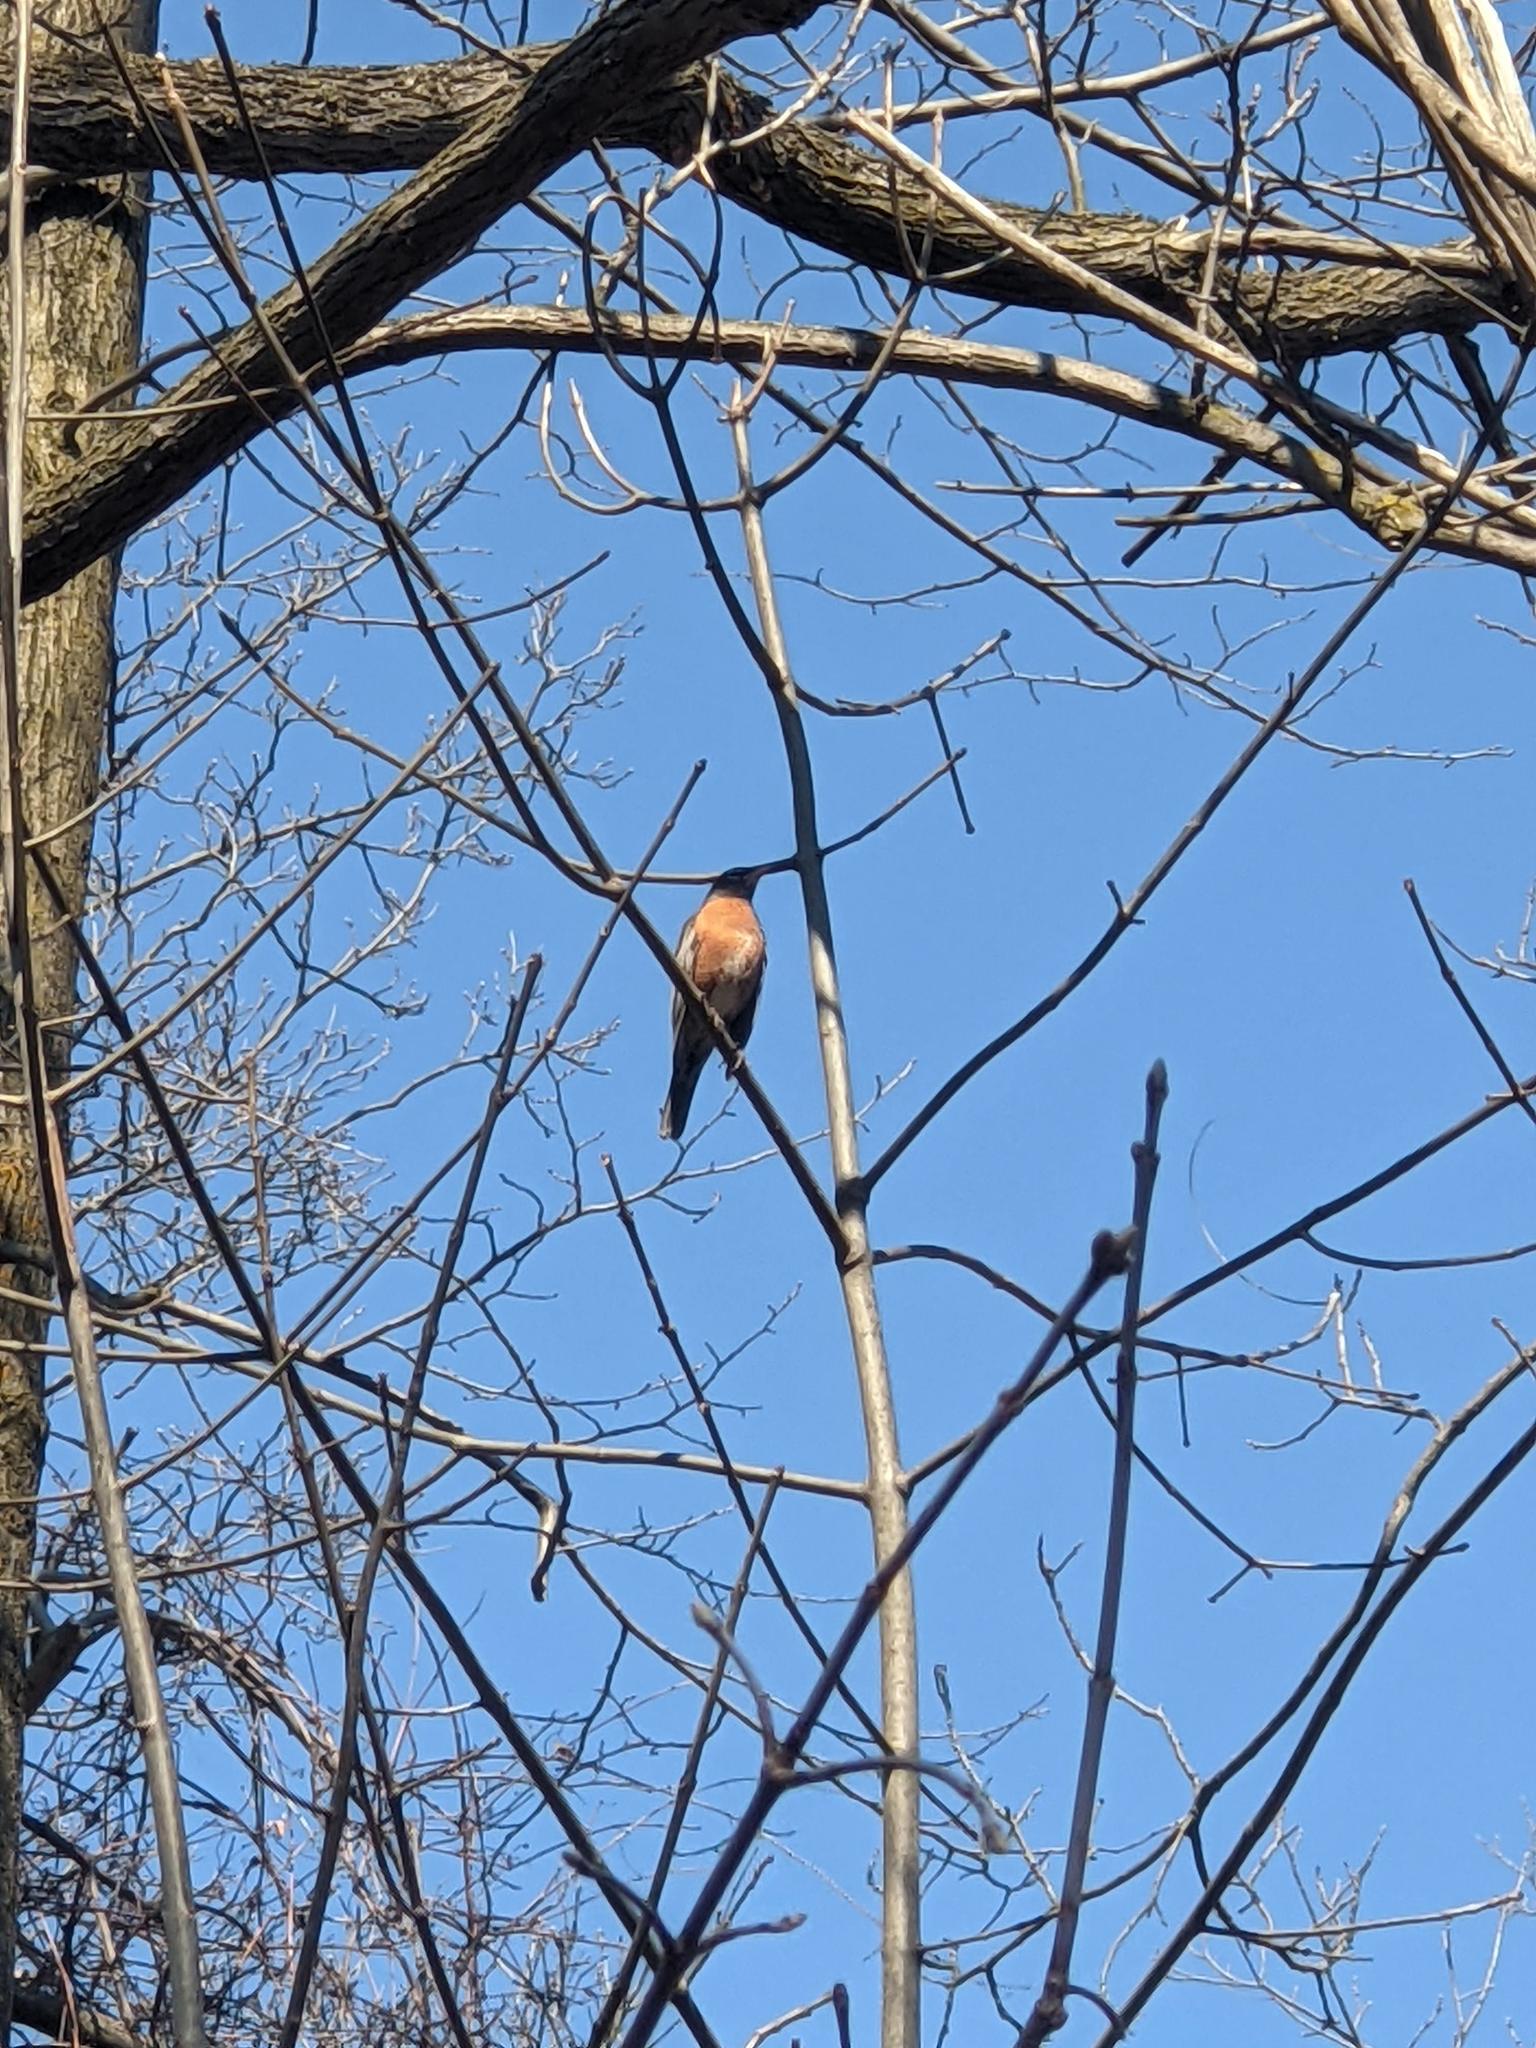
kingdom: Animalia
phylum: Chordata
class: Aves
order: Passeriformes
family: Turdidae
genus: Turdus
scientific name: Turdus migratorius
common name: American robin
